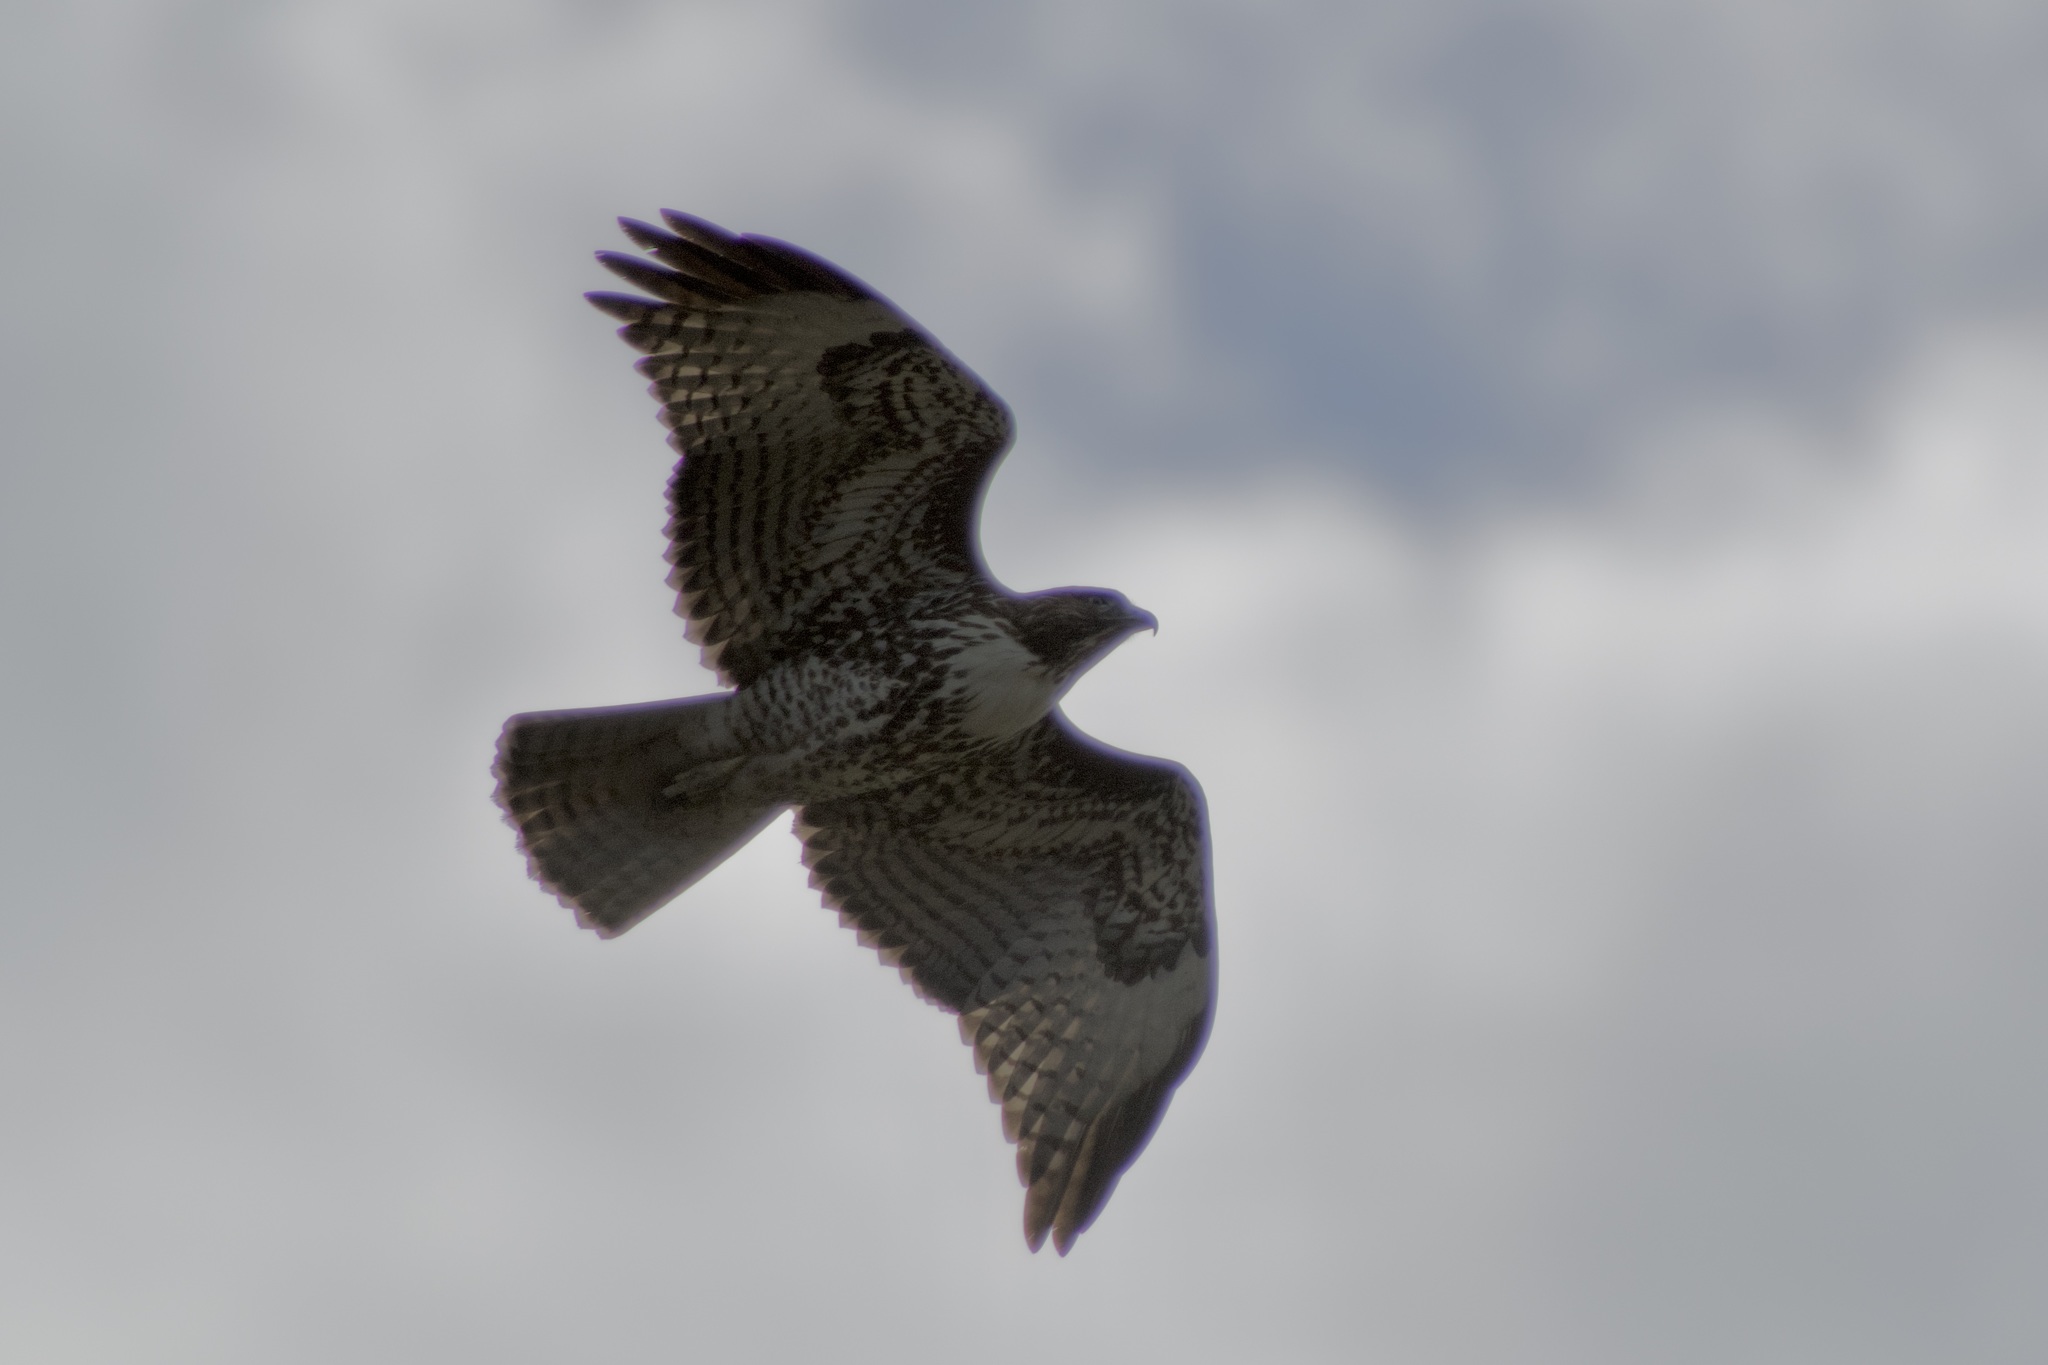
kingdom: Animalia
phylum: Chordata
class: Aves
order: Accipitriformes
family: Accipitridae
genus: Buteo
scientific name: Buteo jamaicensis
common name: Red-tailed hawk
